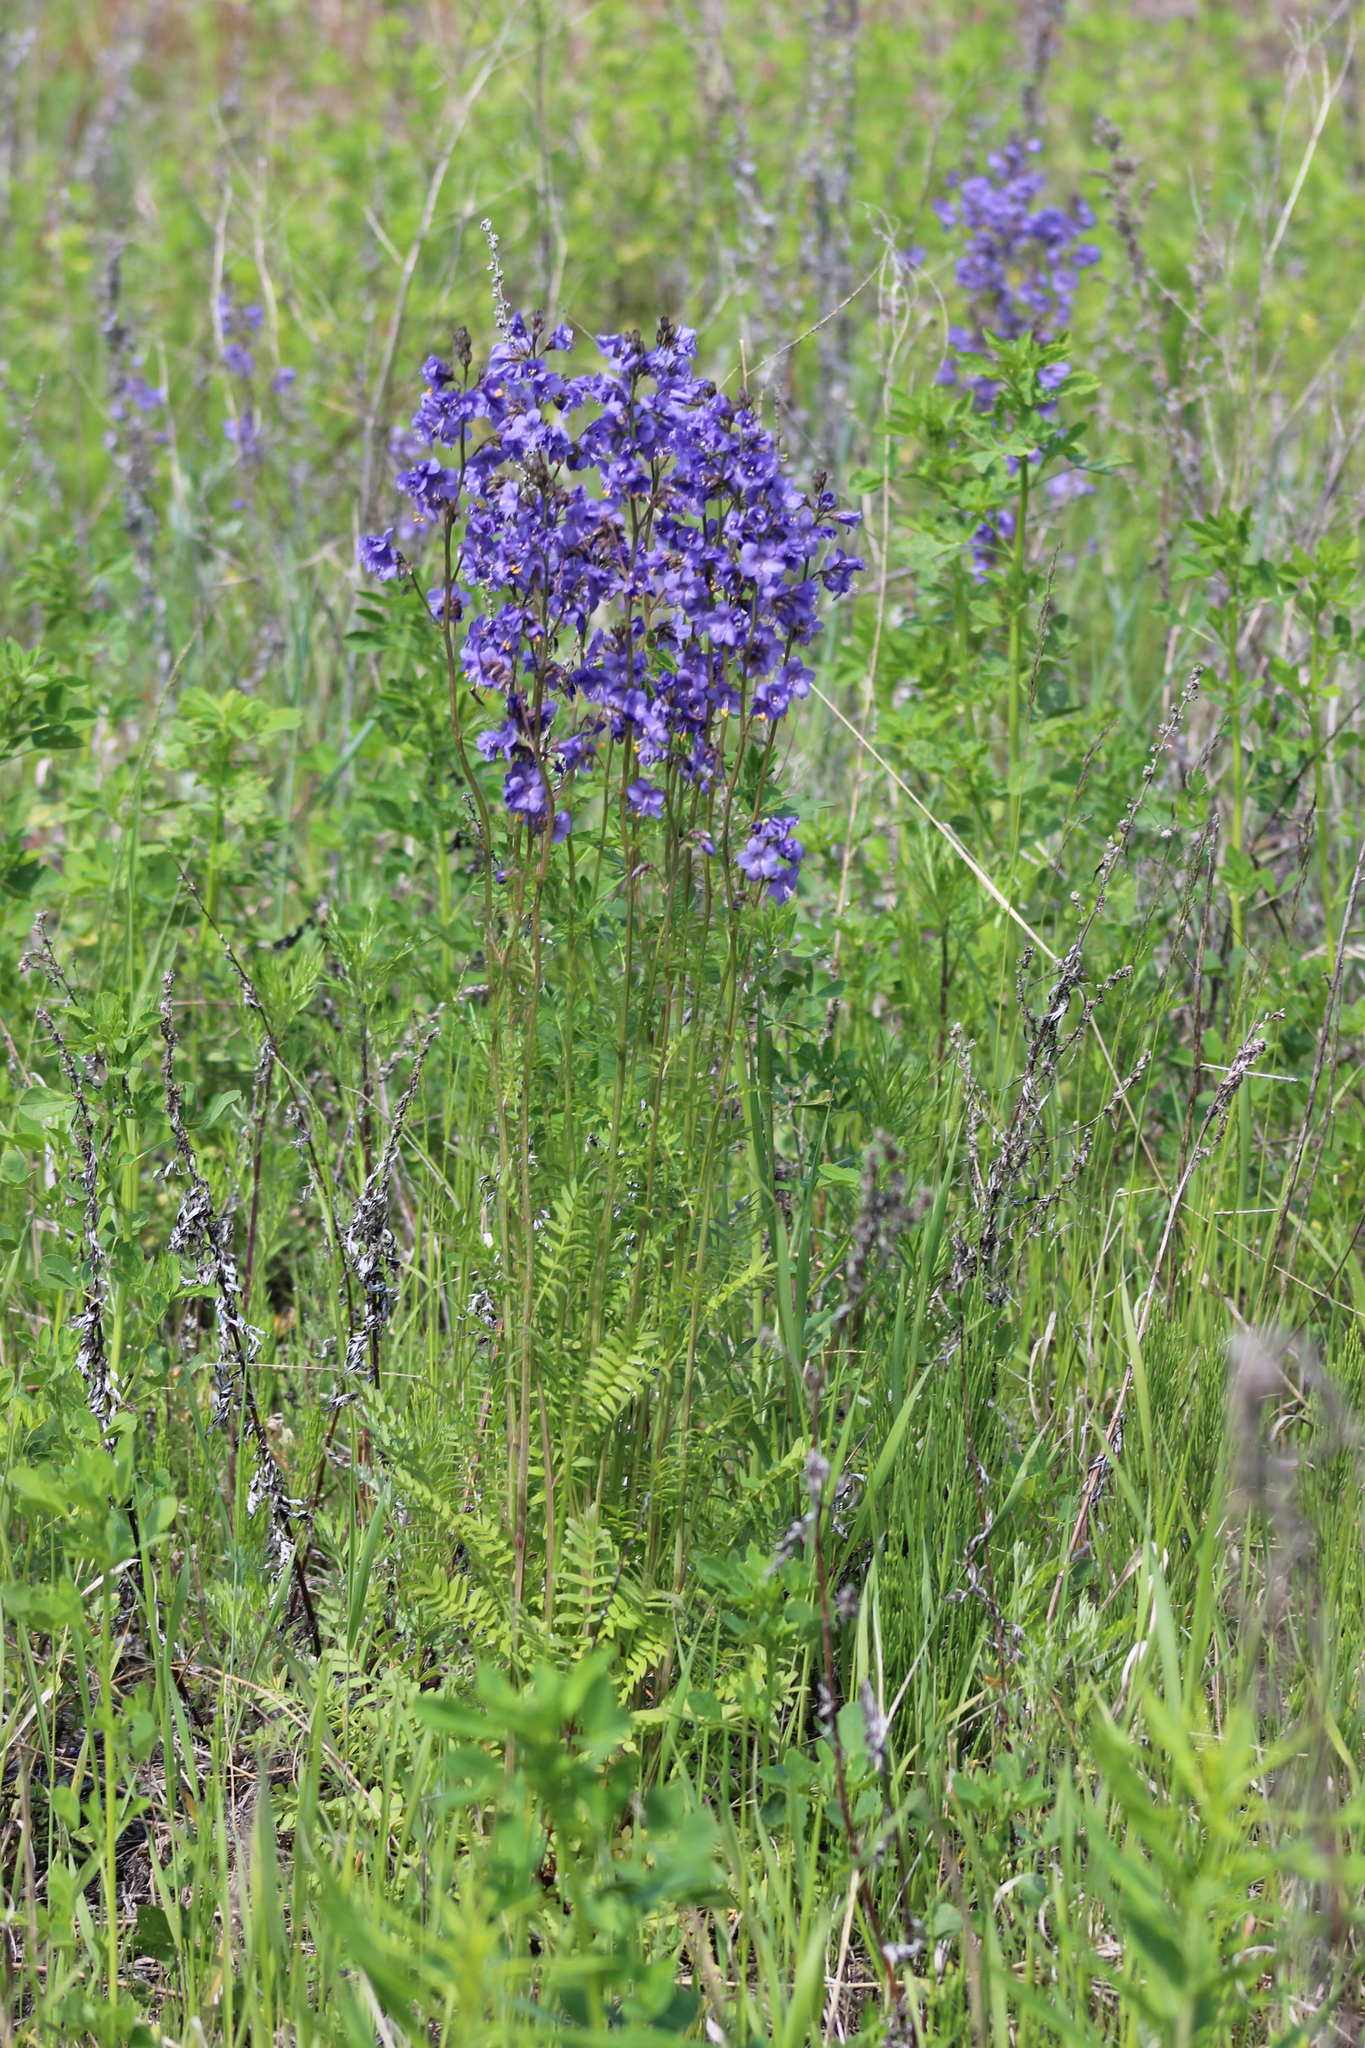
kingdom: Plantae
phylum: Tracheophyta
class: Magnoliopsida
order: Ericales
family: Polemoniaceae
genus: Polemonium
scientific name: Polemonium caeruleum
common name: Jacob's-ladder
